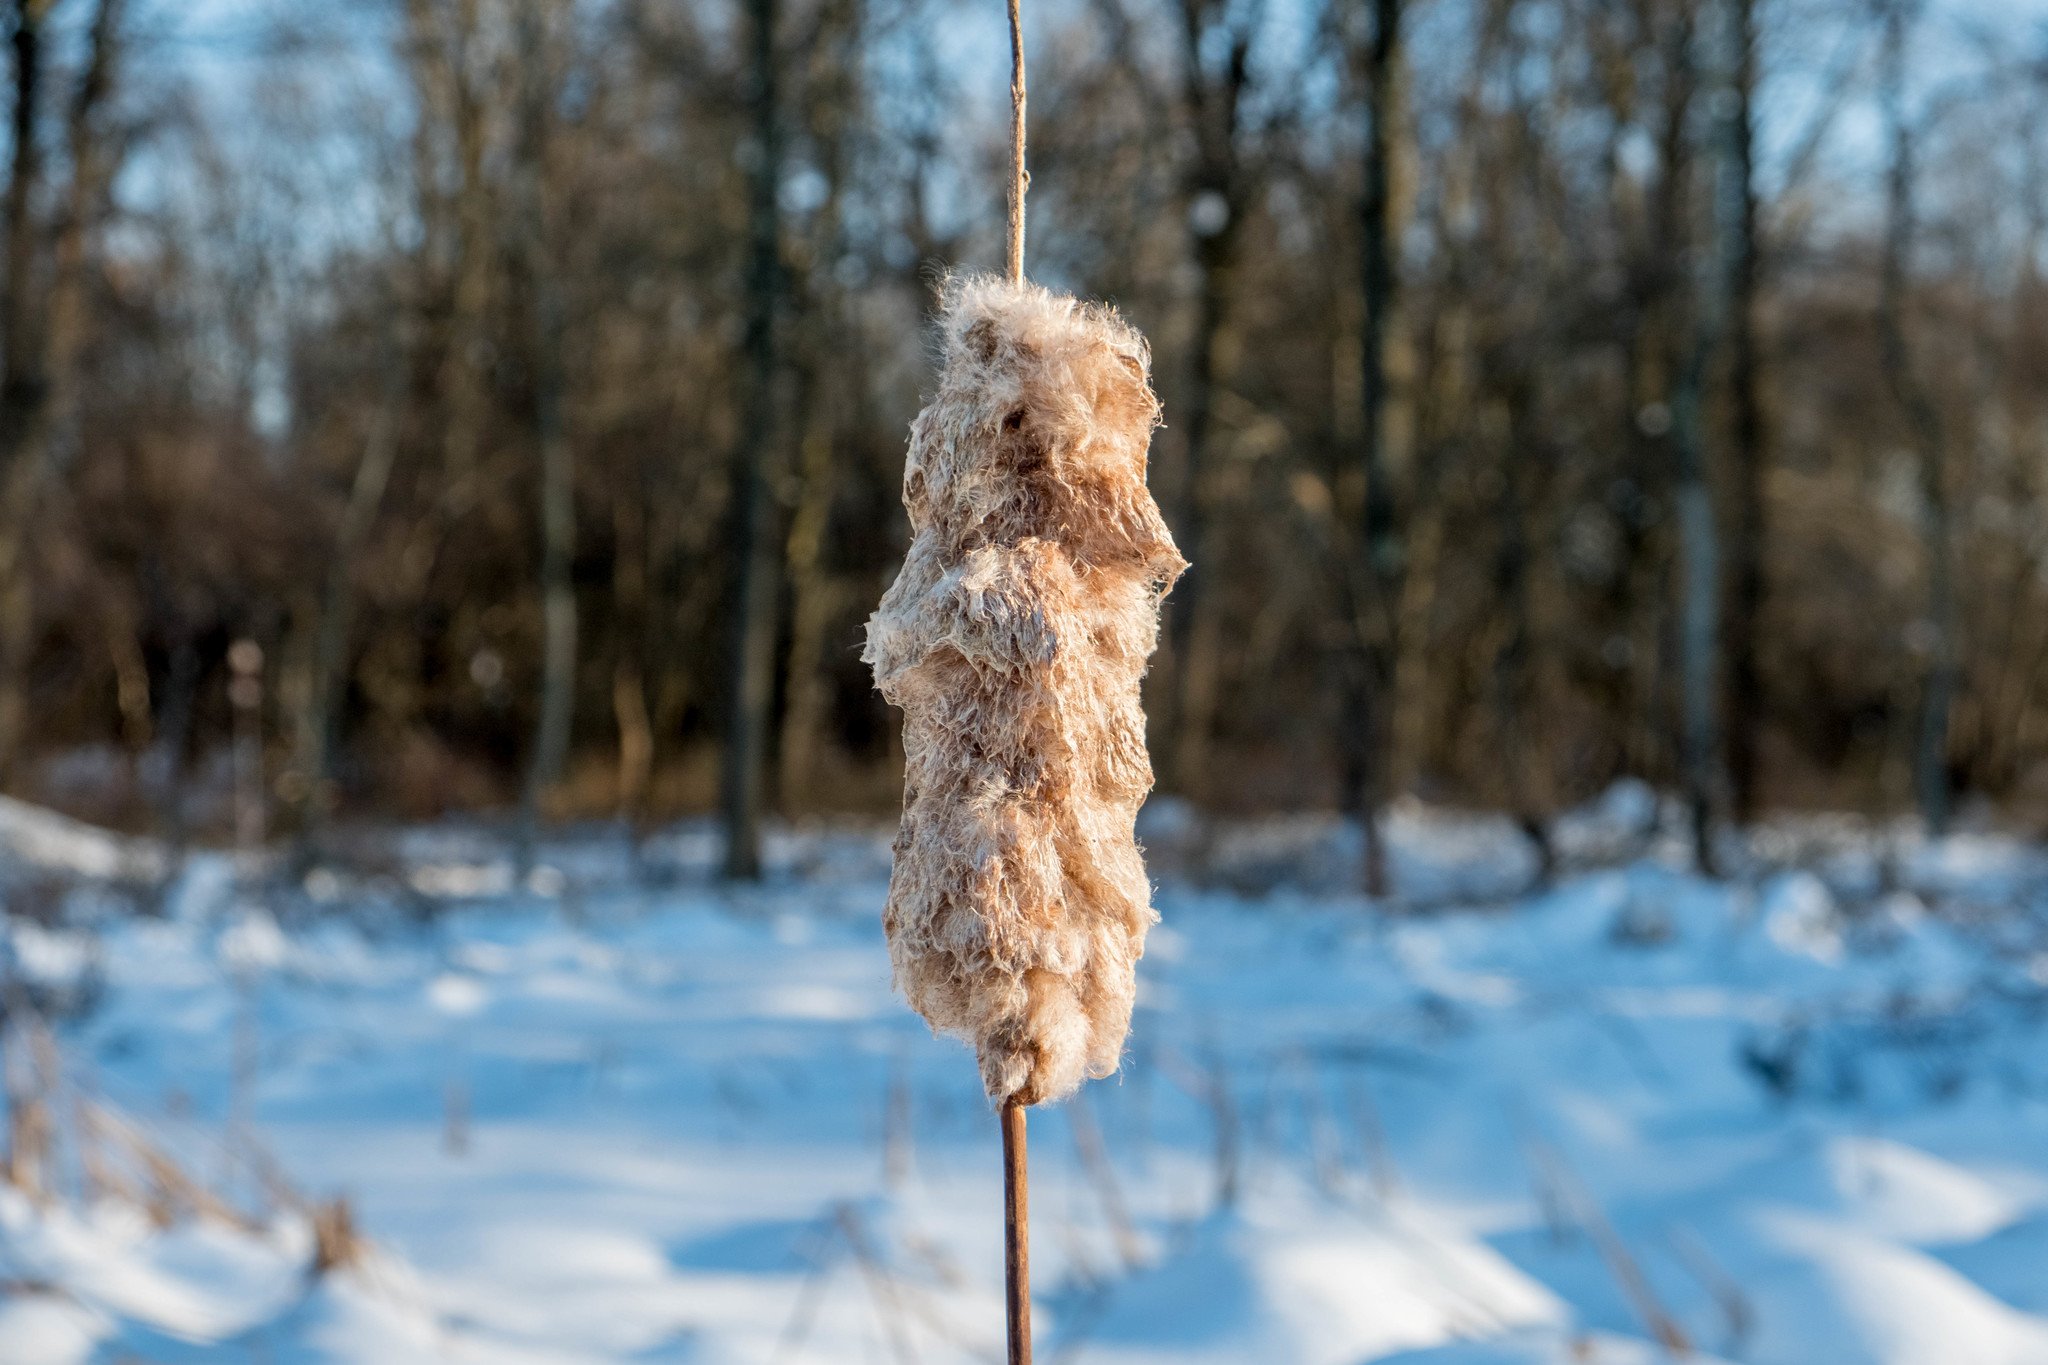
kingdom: Plantae
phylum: Tracheophyta
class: Liliopsida
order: Poales
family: Typhaceae
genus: Typha
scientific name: Typha
